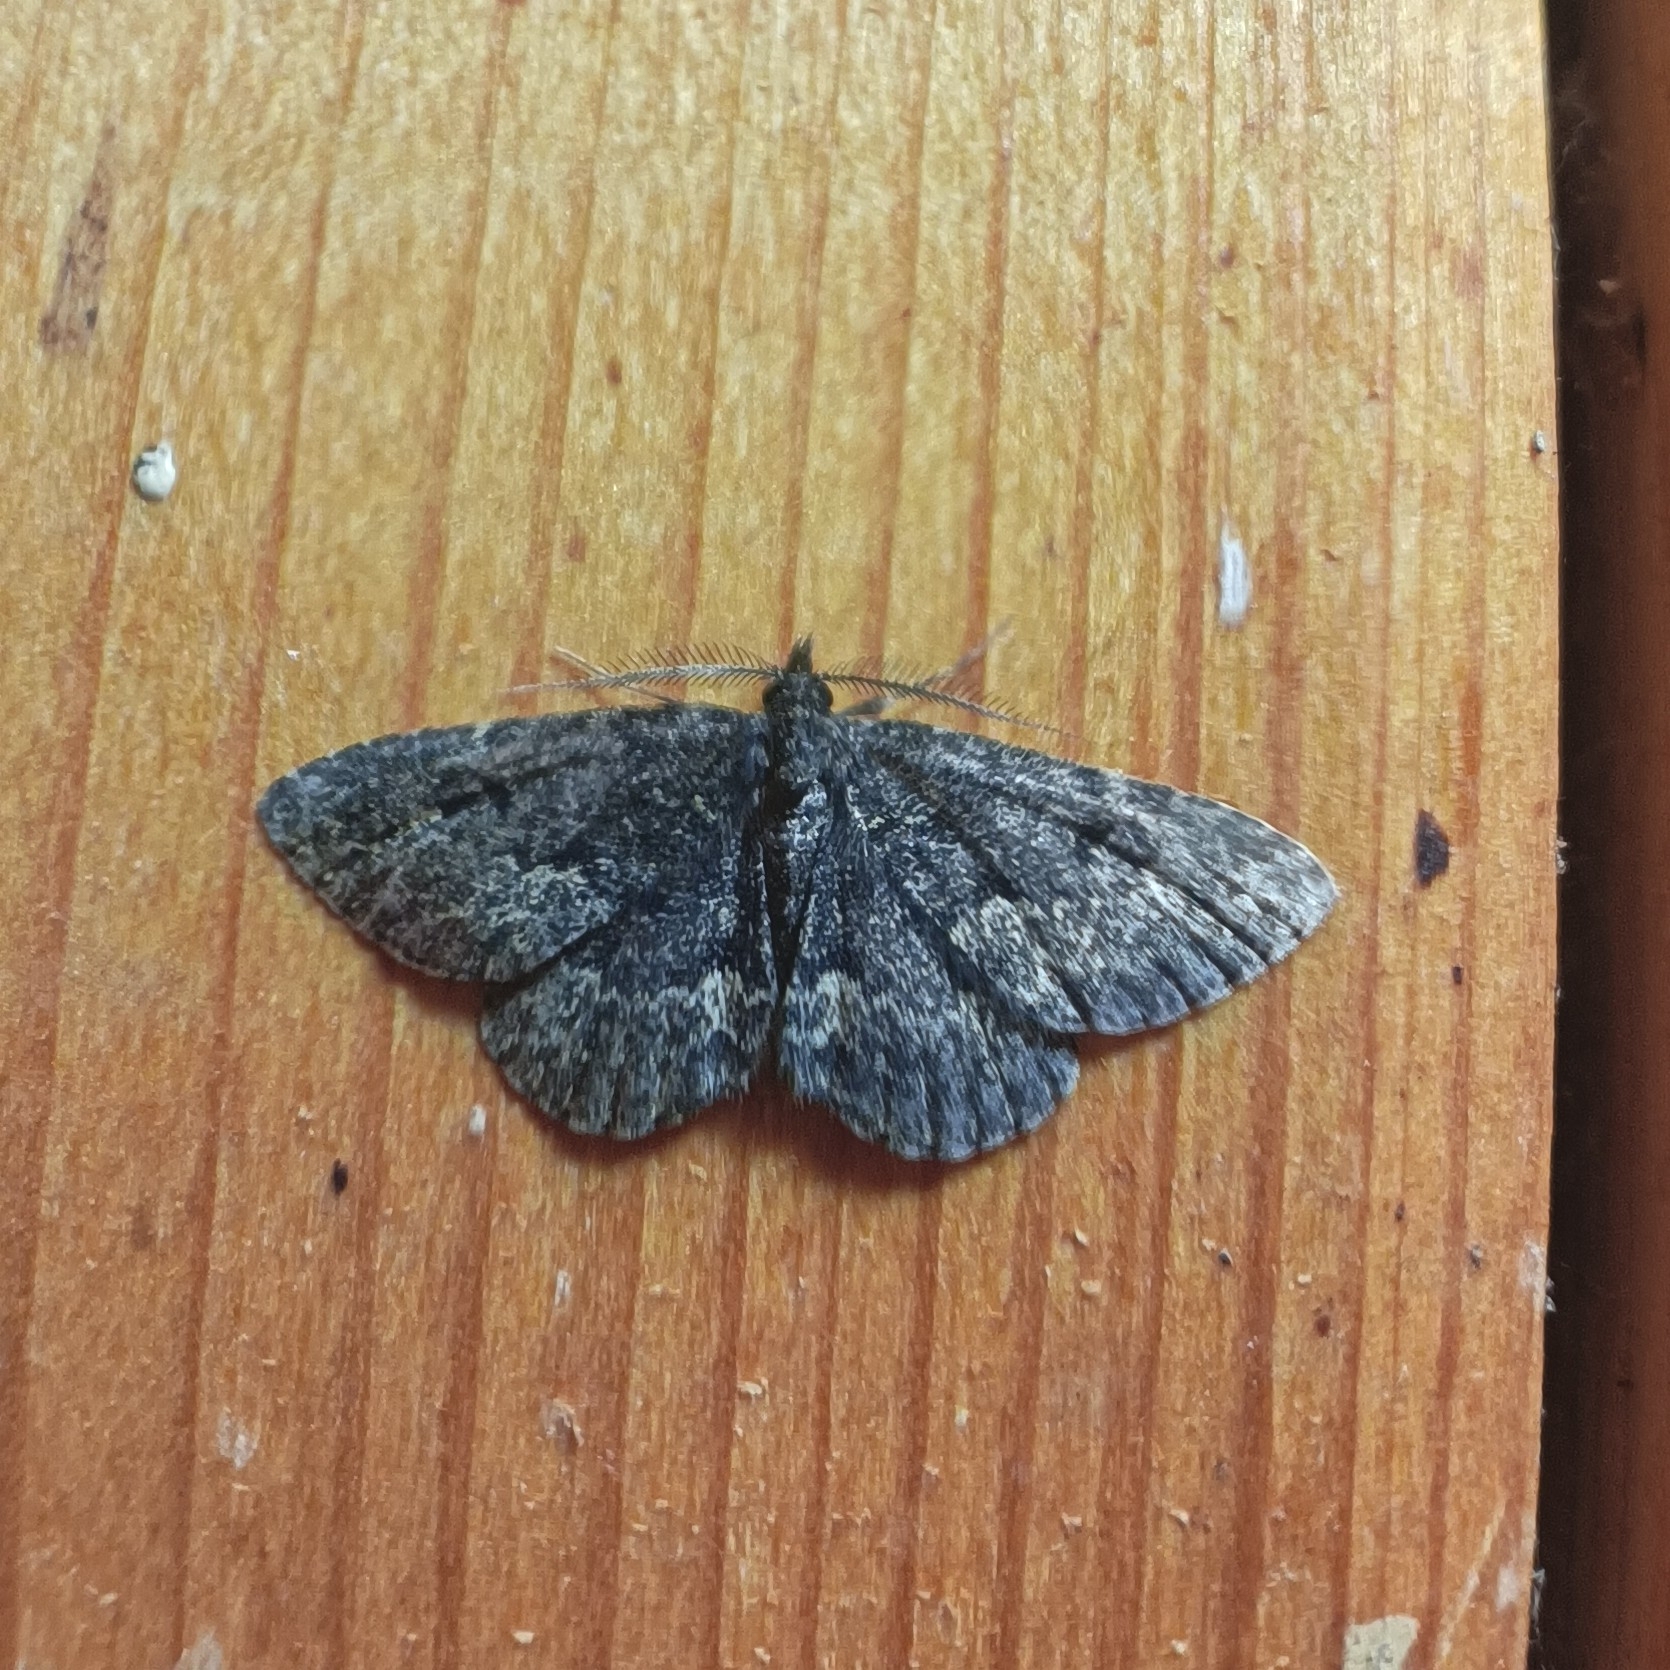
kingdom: Animalia
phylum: Arthropoda
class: Insecta
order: Lepidoptera
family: Erebidae
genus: Parascotia
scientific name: Parascotia fuliginaria
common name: Waved black
